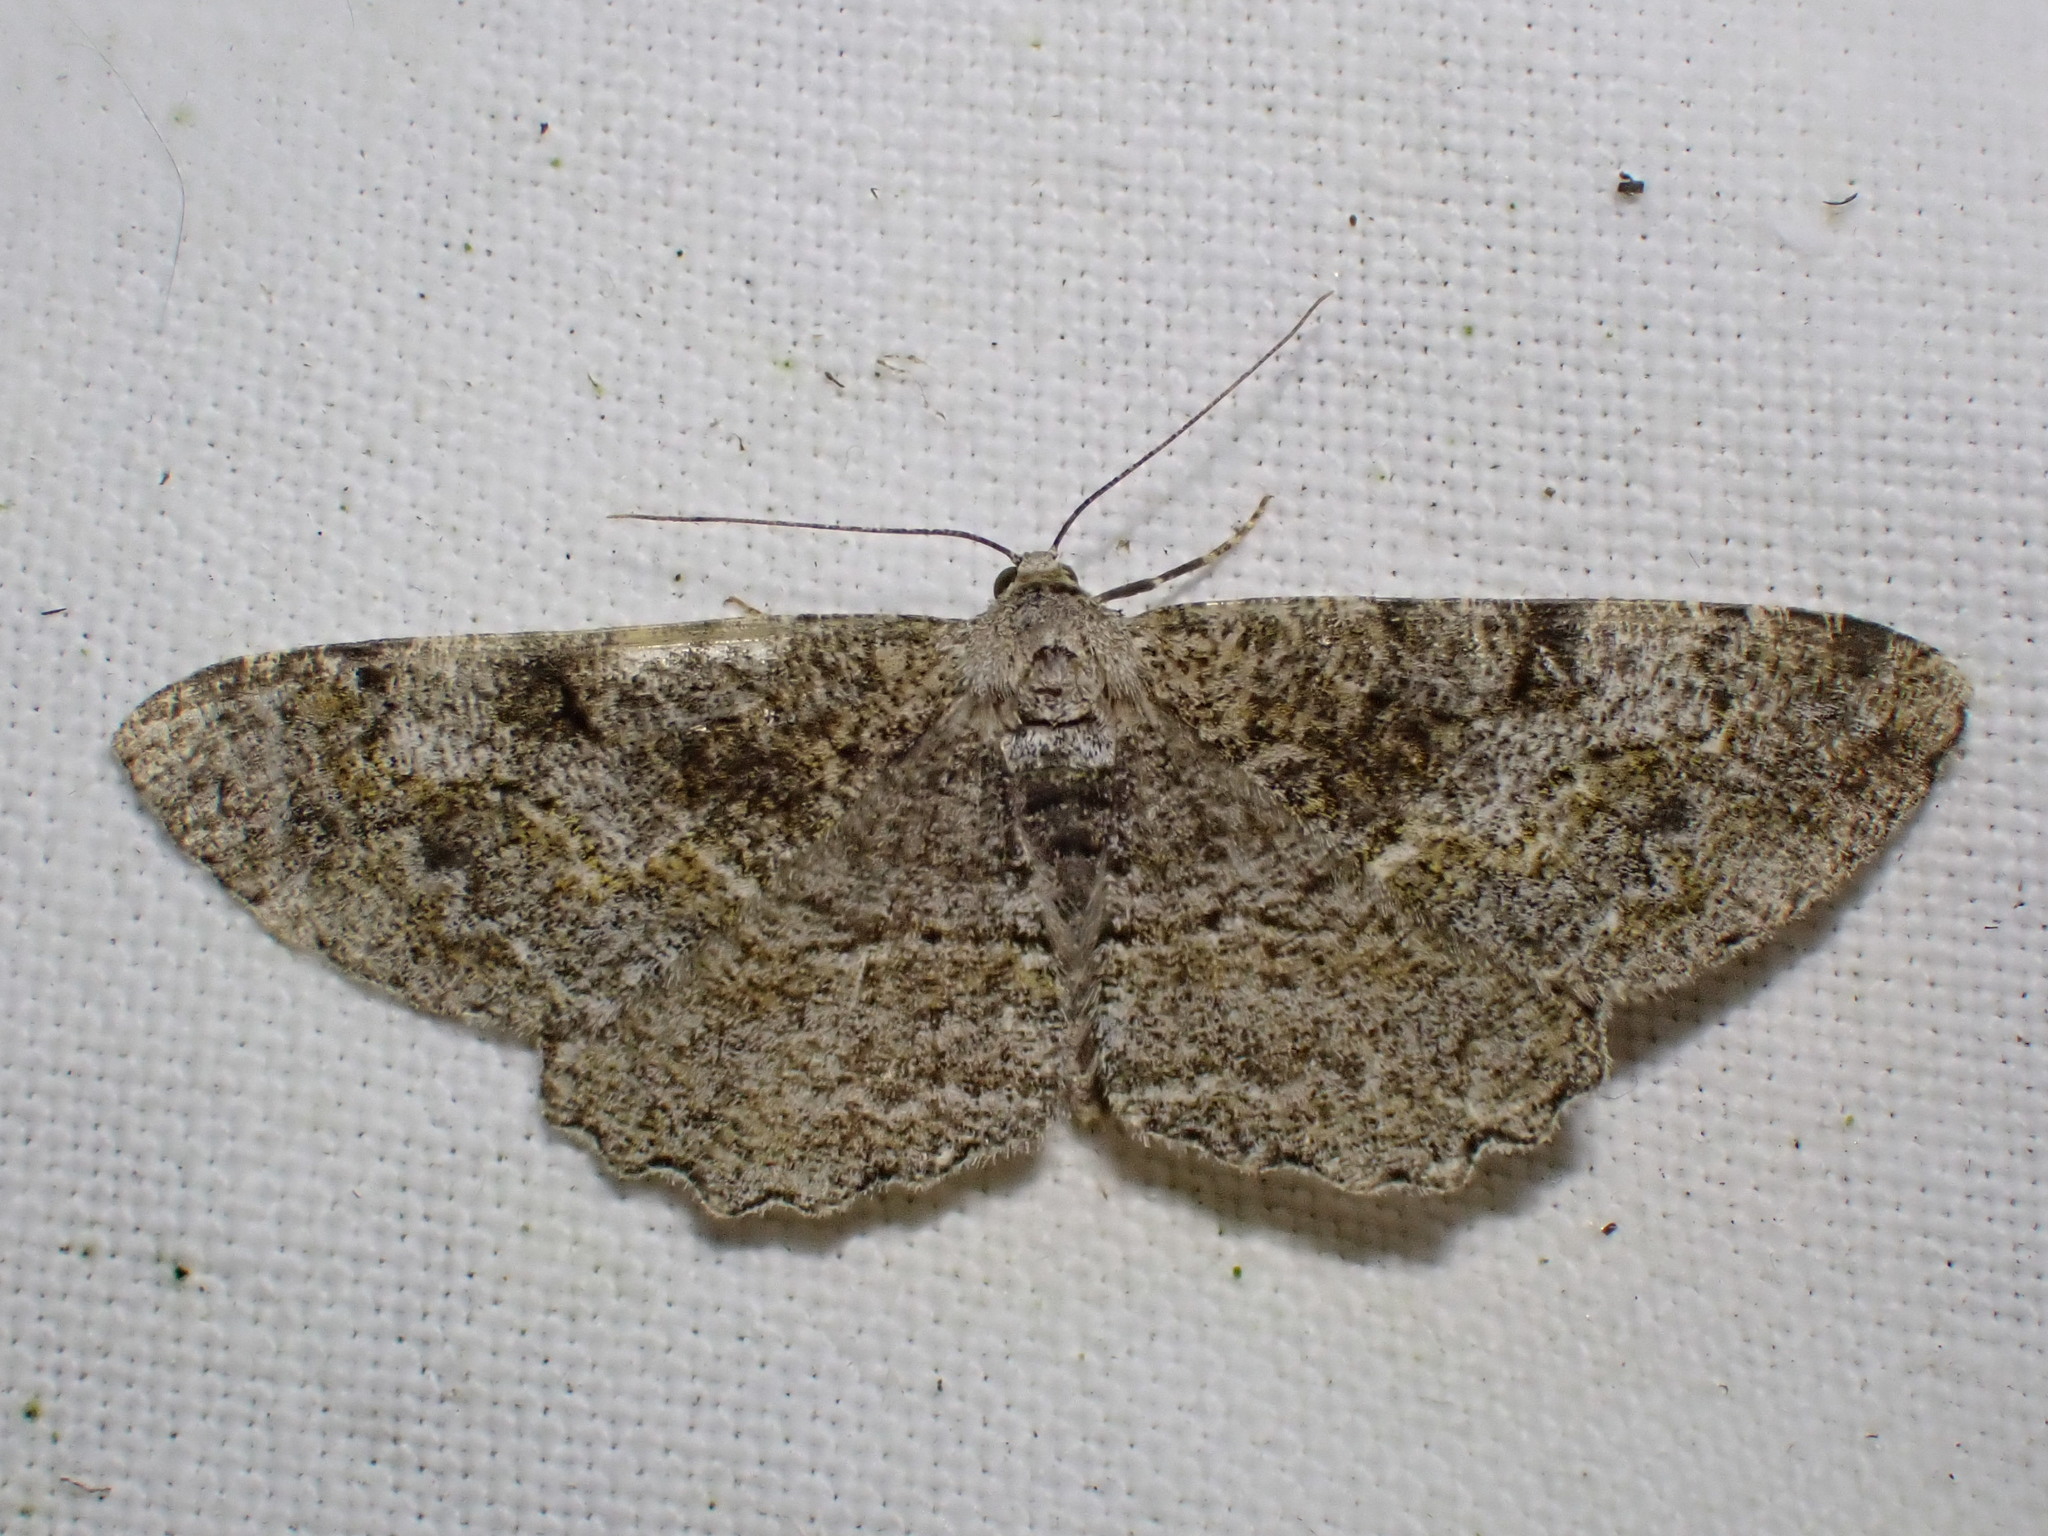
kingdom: Animalia
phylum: Arthropoda
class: Insecta
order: Lepidoptera
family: Geometridae
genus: Alcis
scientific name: Alcis repandata
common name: Mottled beauty
